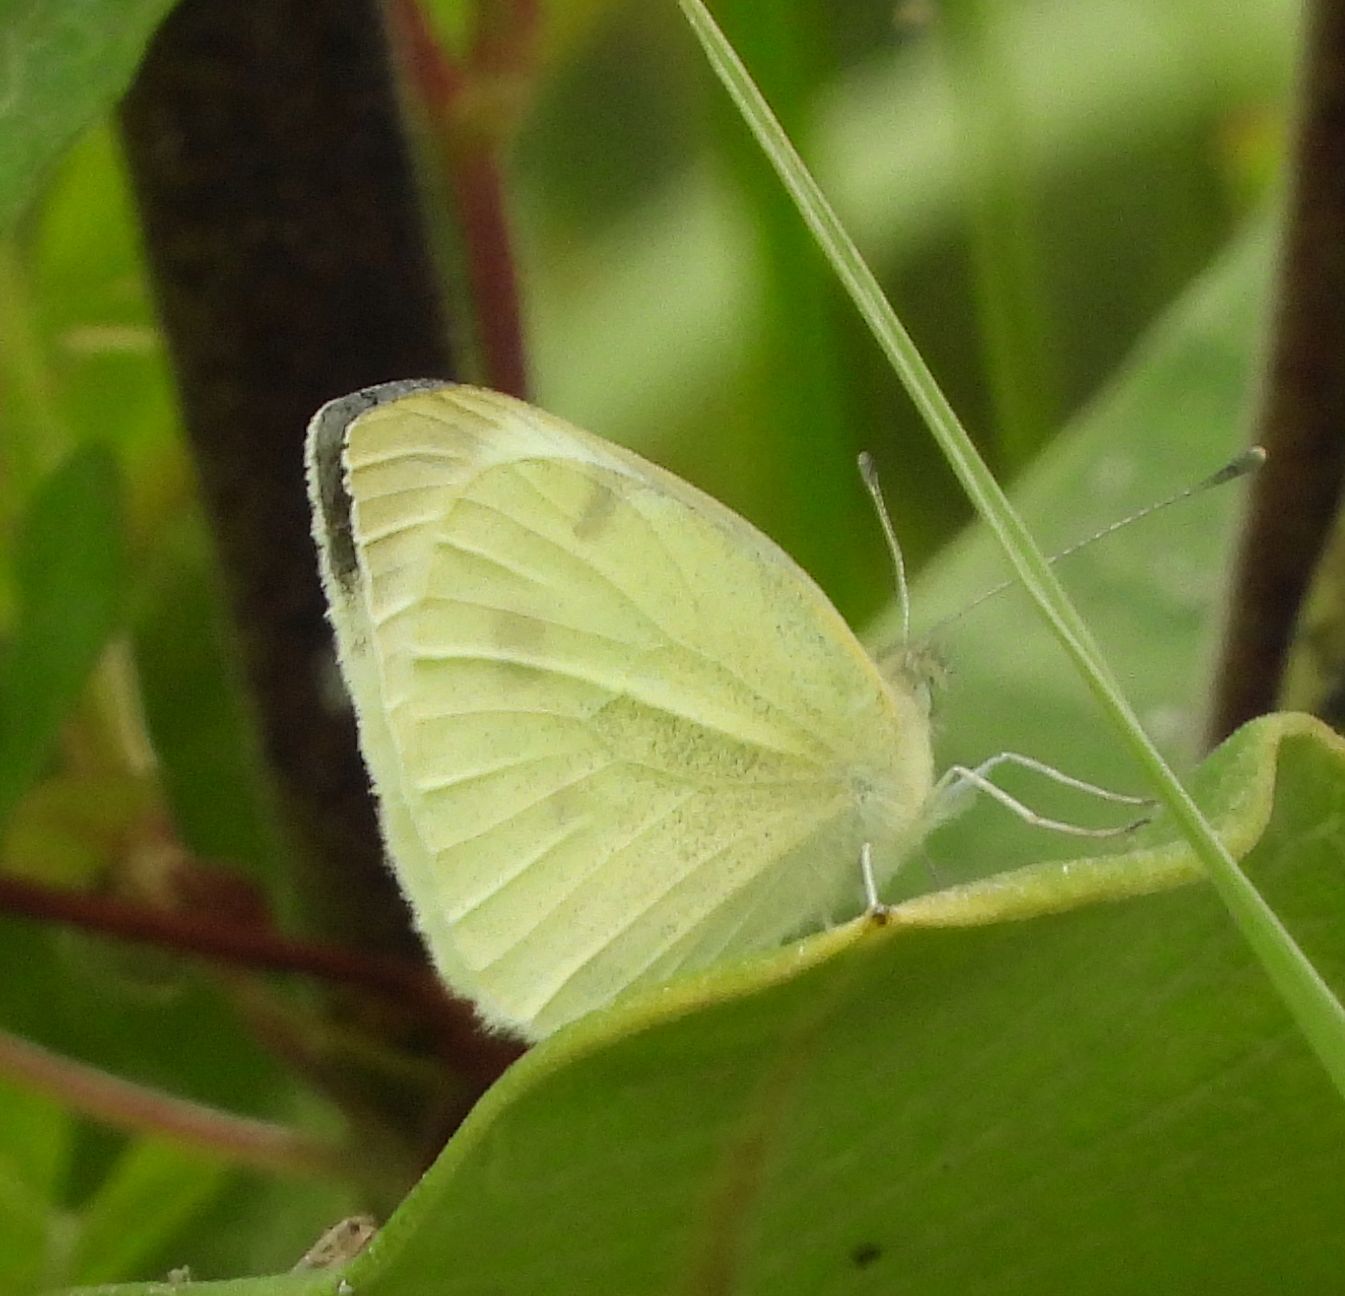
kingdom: Animalia
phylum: Arthropoda
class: Insecta
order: Lepidoptera
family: Pieridae
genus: Pieris
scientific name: Pieris rapae
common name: Small white
